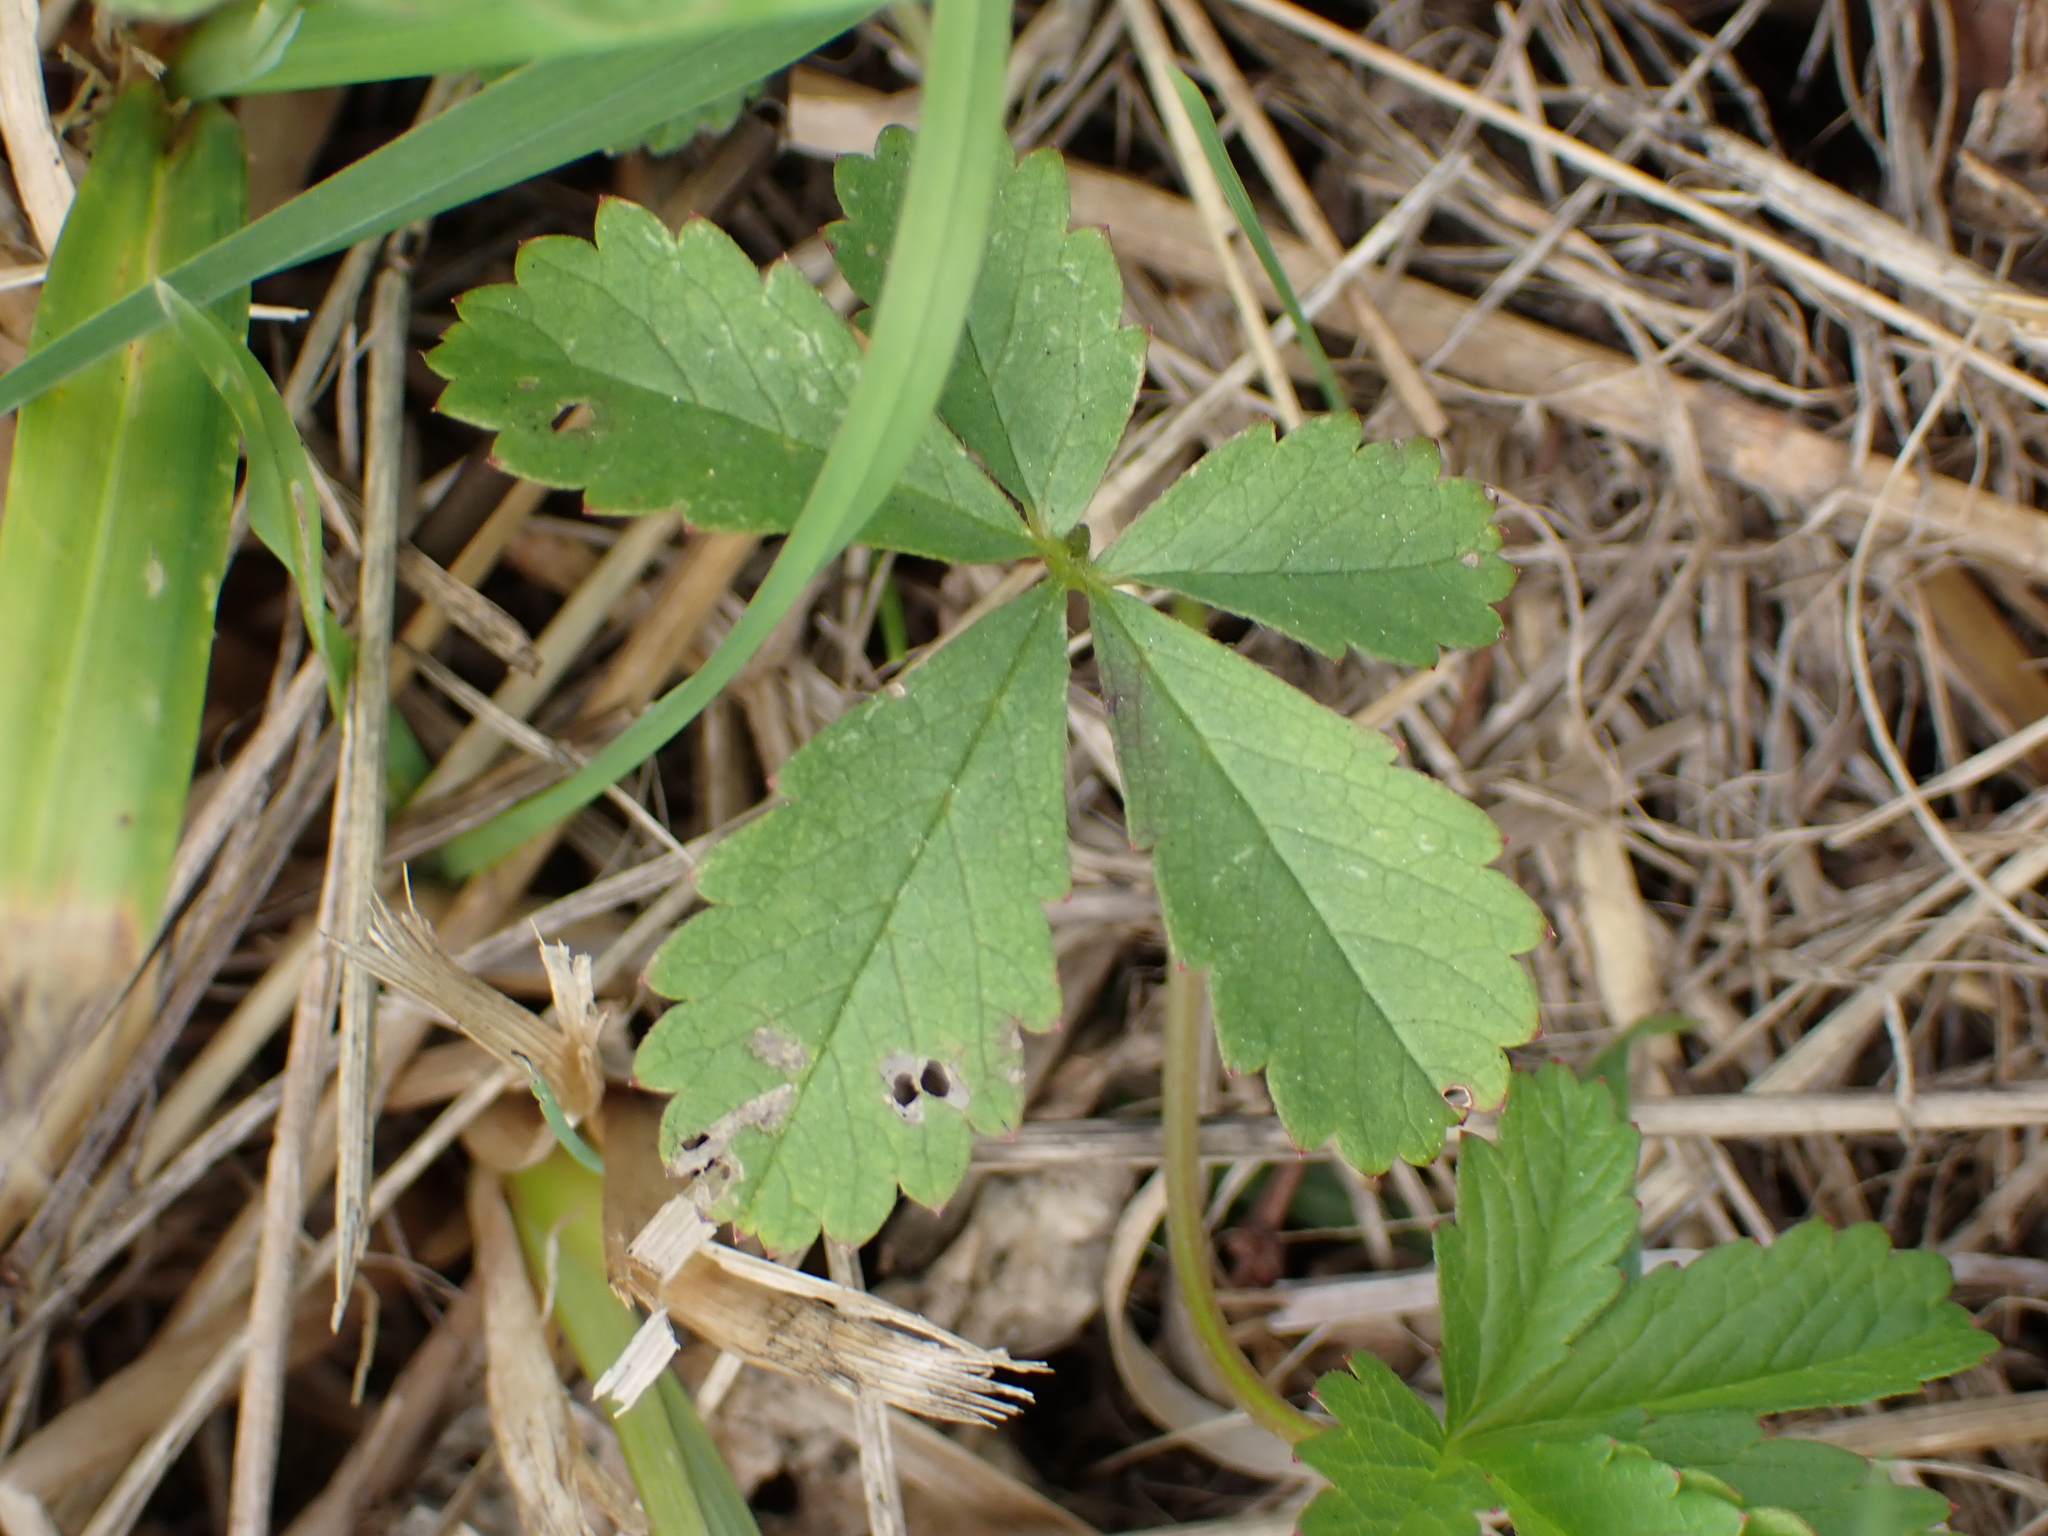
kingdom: Plantae
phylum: Tracheophyta
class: Magnoliopsida
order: Rosales
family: Rosaceae
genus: Potentilla
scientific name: Potentilla reptans
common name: Creeping cinquefoil
